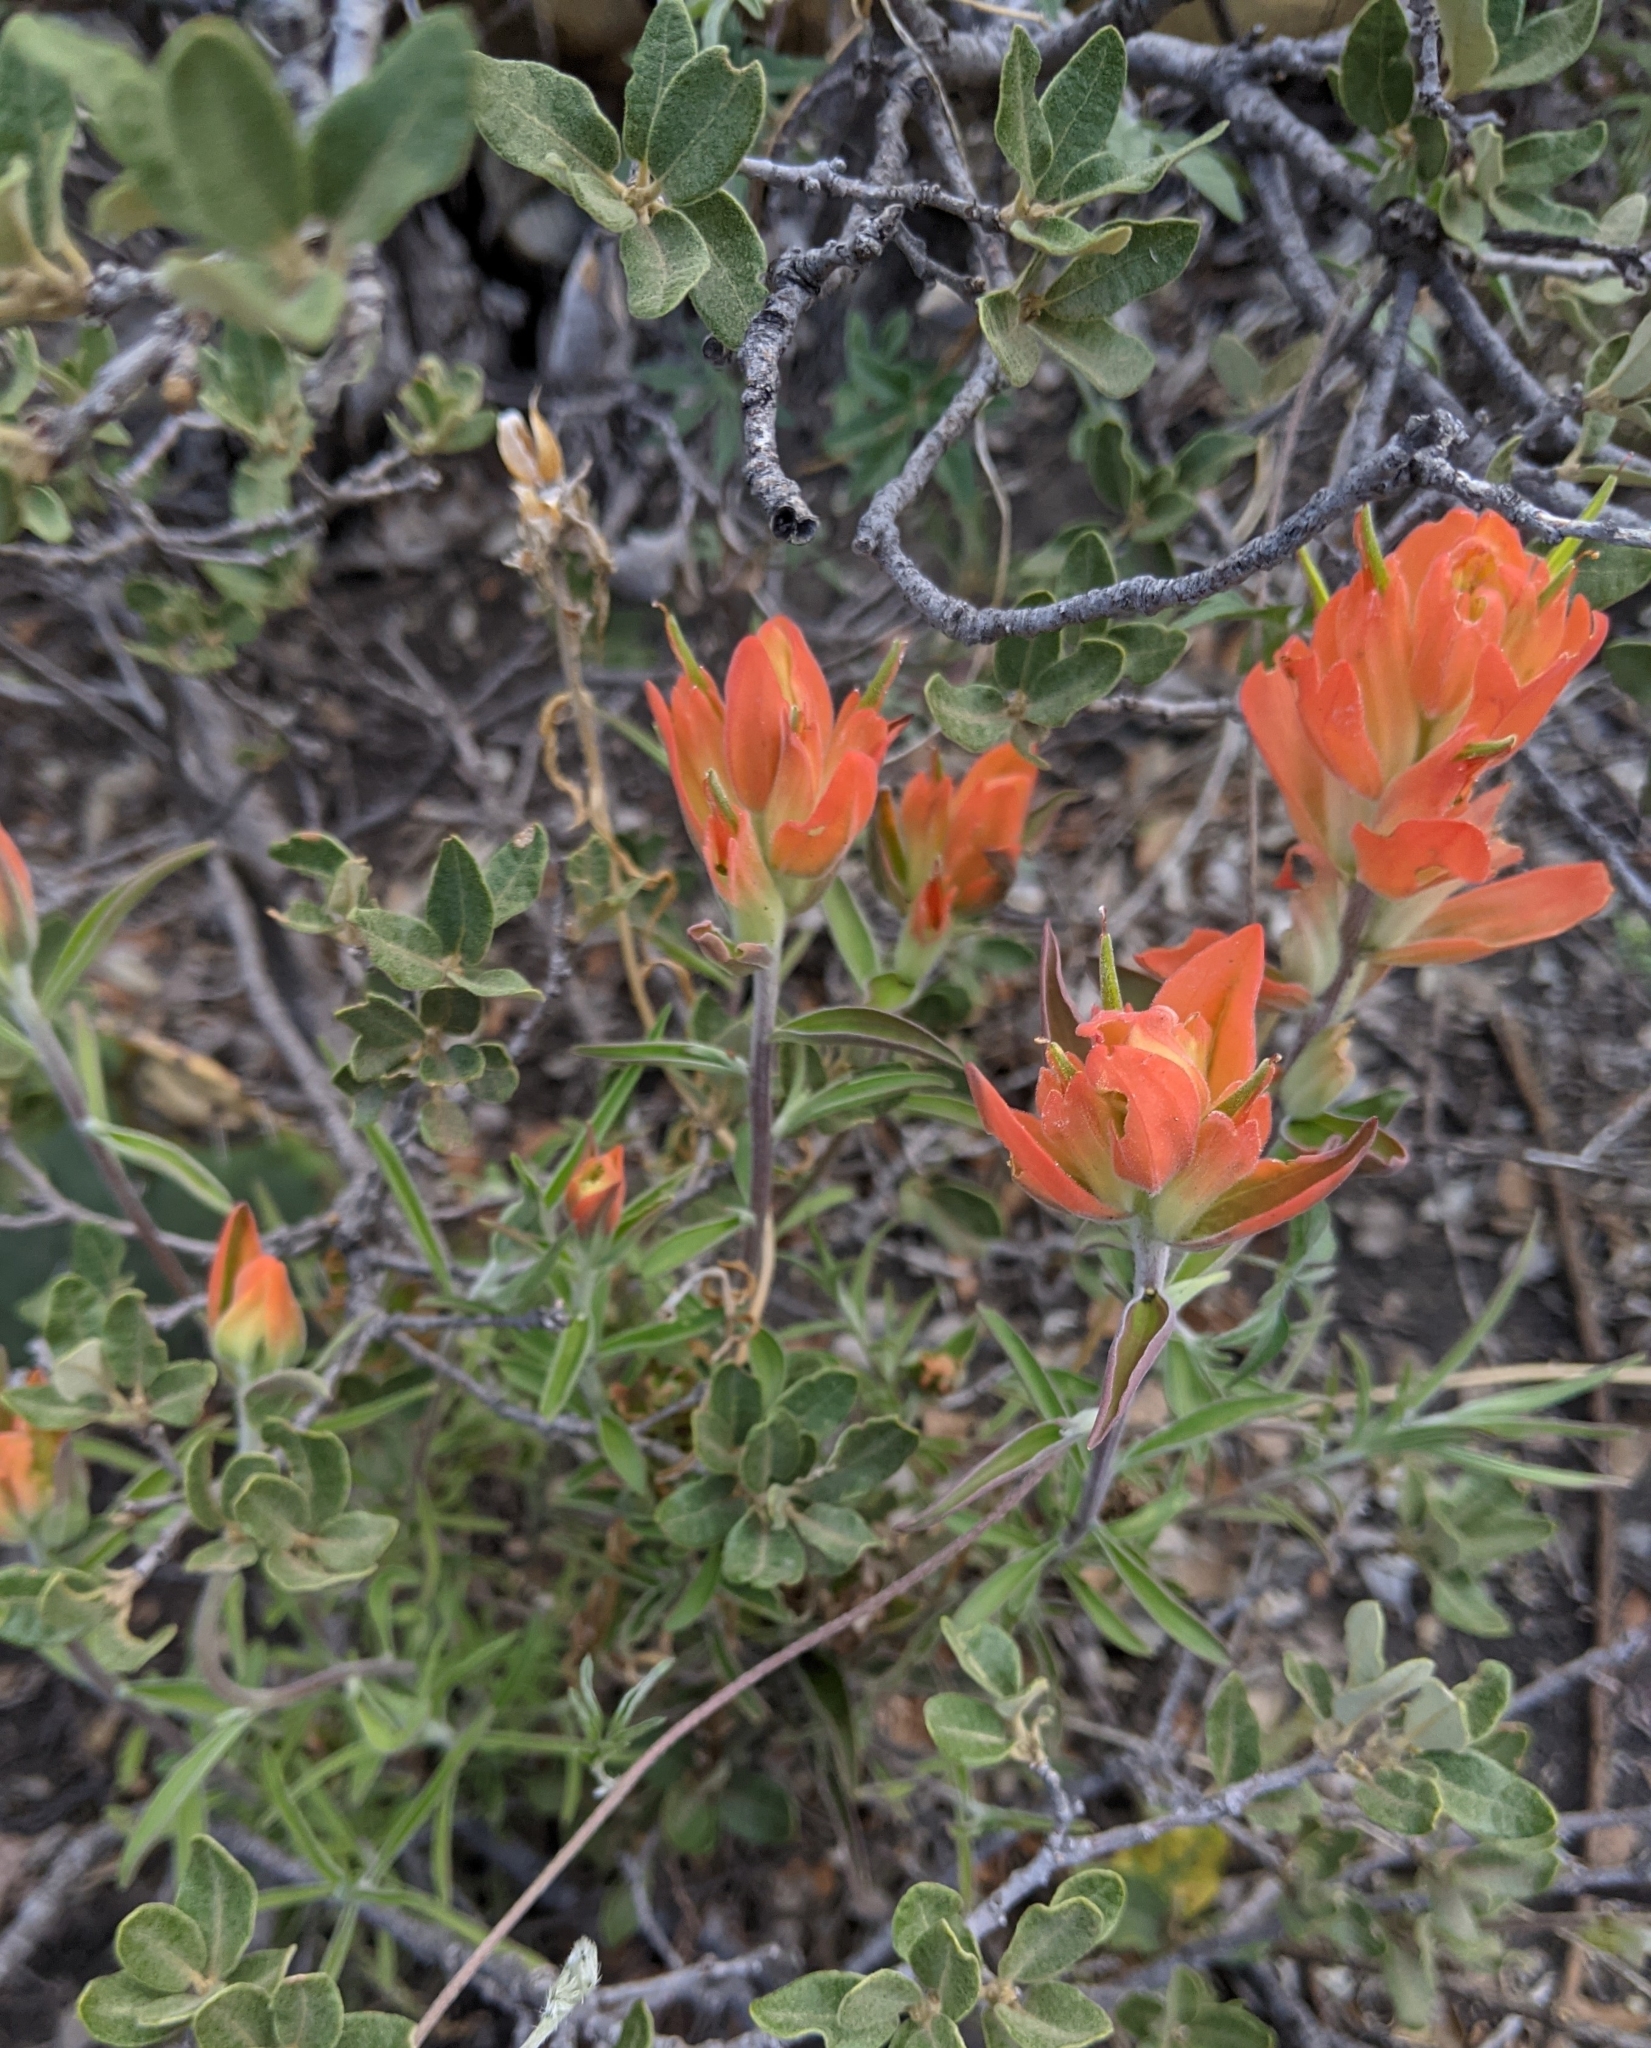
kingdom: Plantae
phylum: Tracheophyta
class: Magnoliopsida
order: Lamiales
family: Orobanchaceae
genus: Castilleja
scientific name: Castilleja integra
